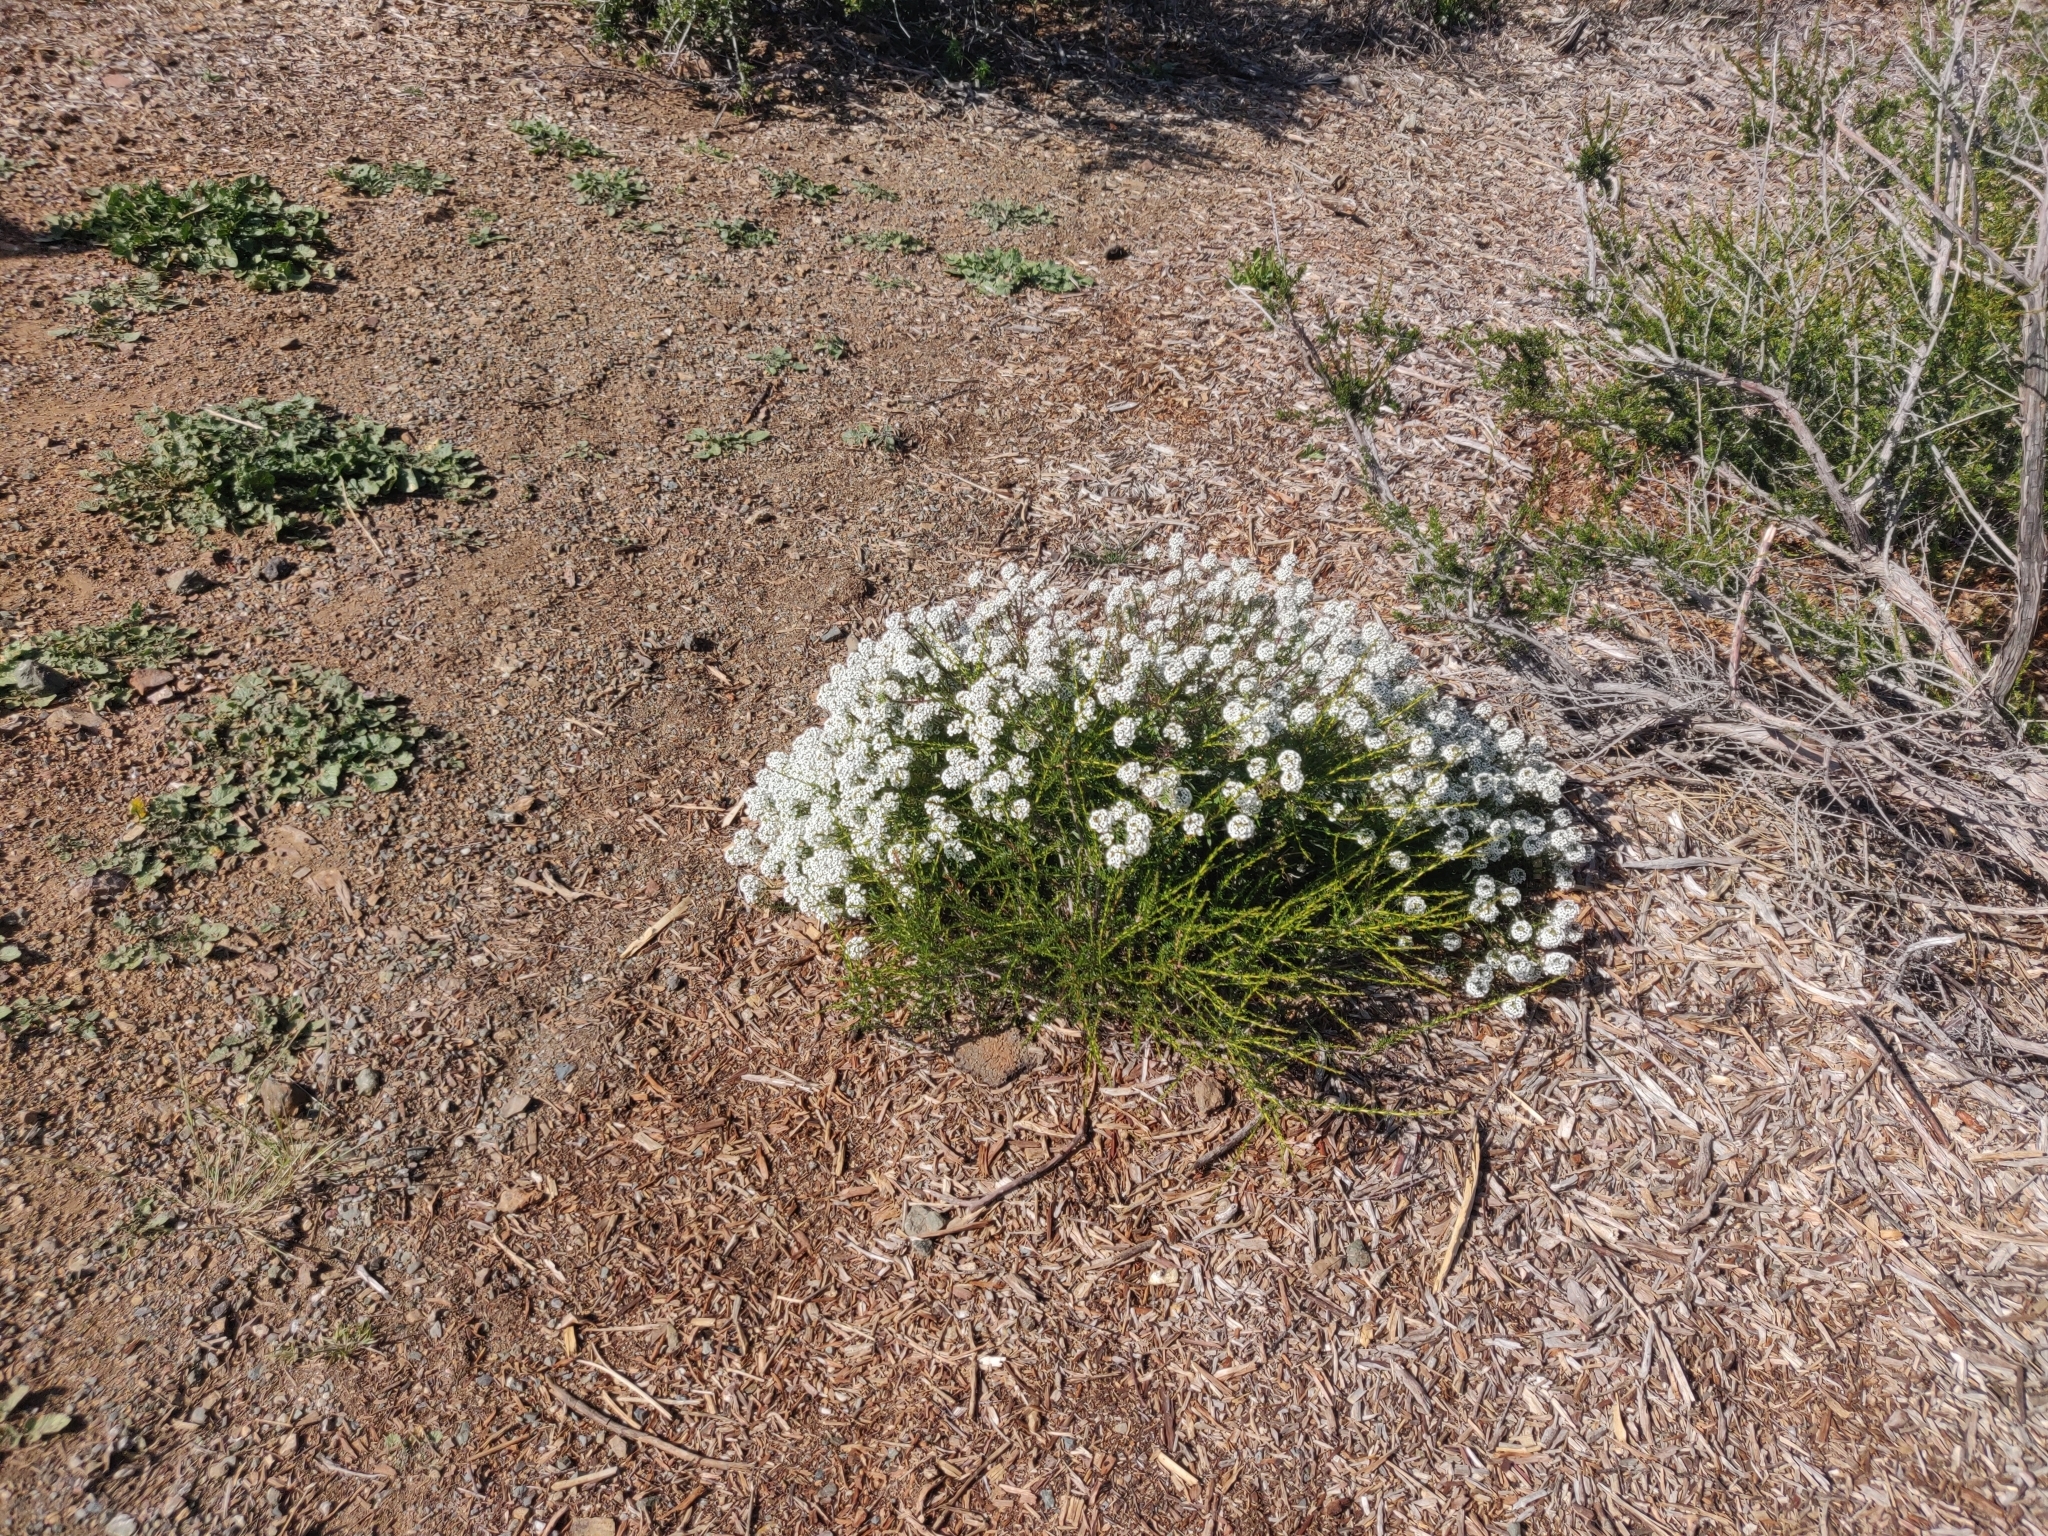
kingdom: Plantae
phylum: Tracheophyta
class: Magnoliopsida
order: Brassicales
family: Brassicaceae
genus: Lobularia
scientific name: Lobularia maritima
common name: Sweet alison
